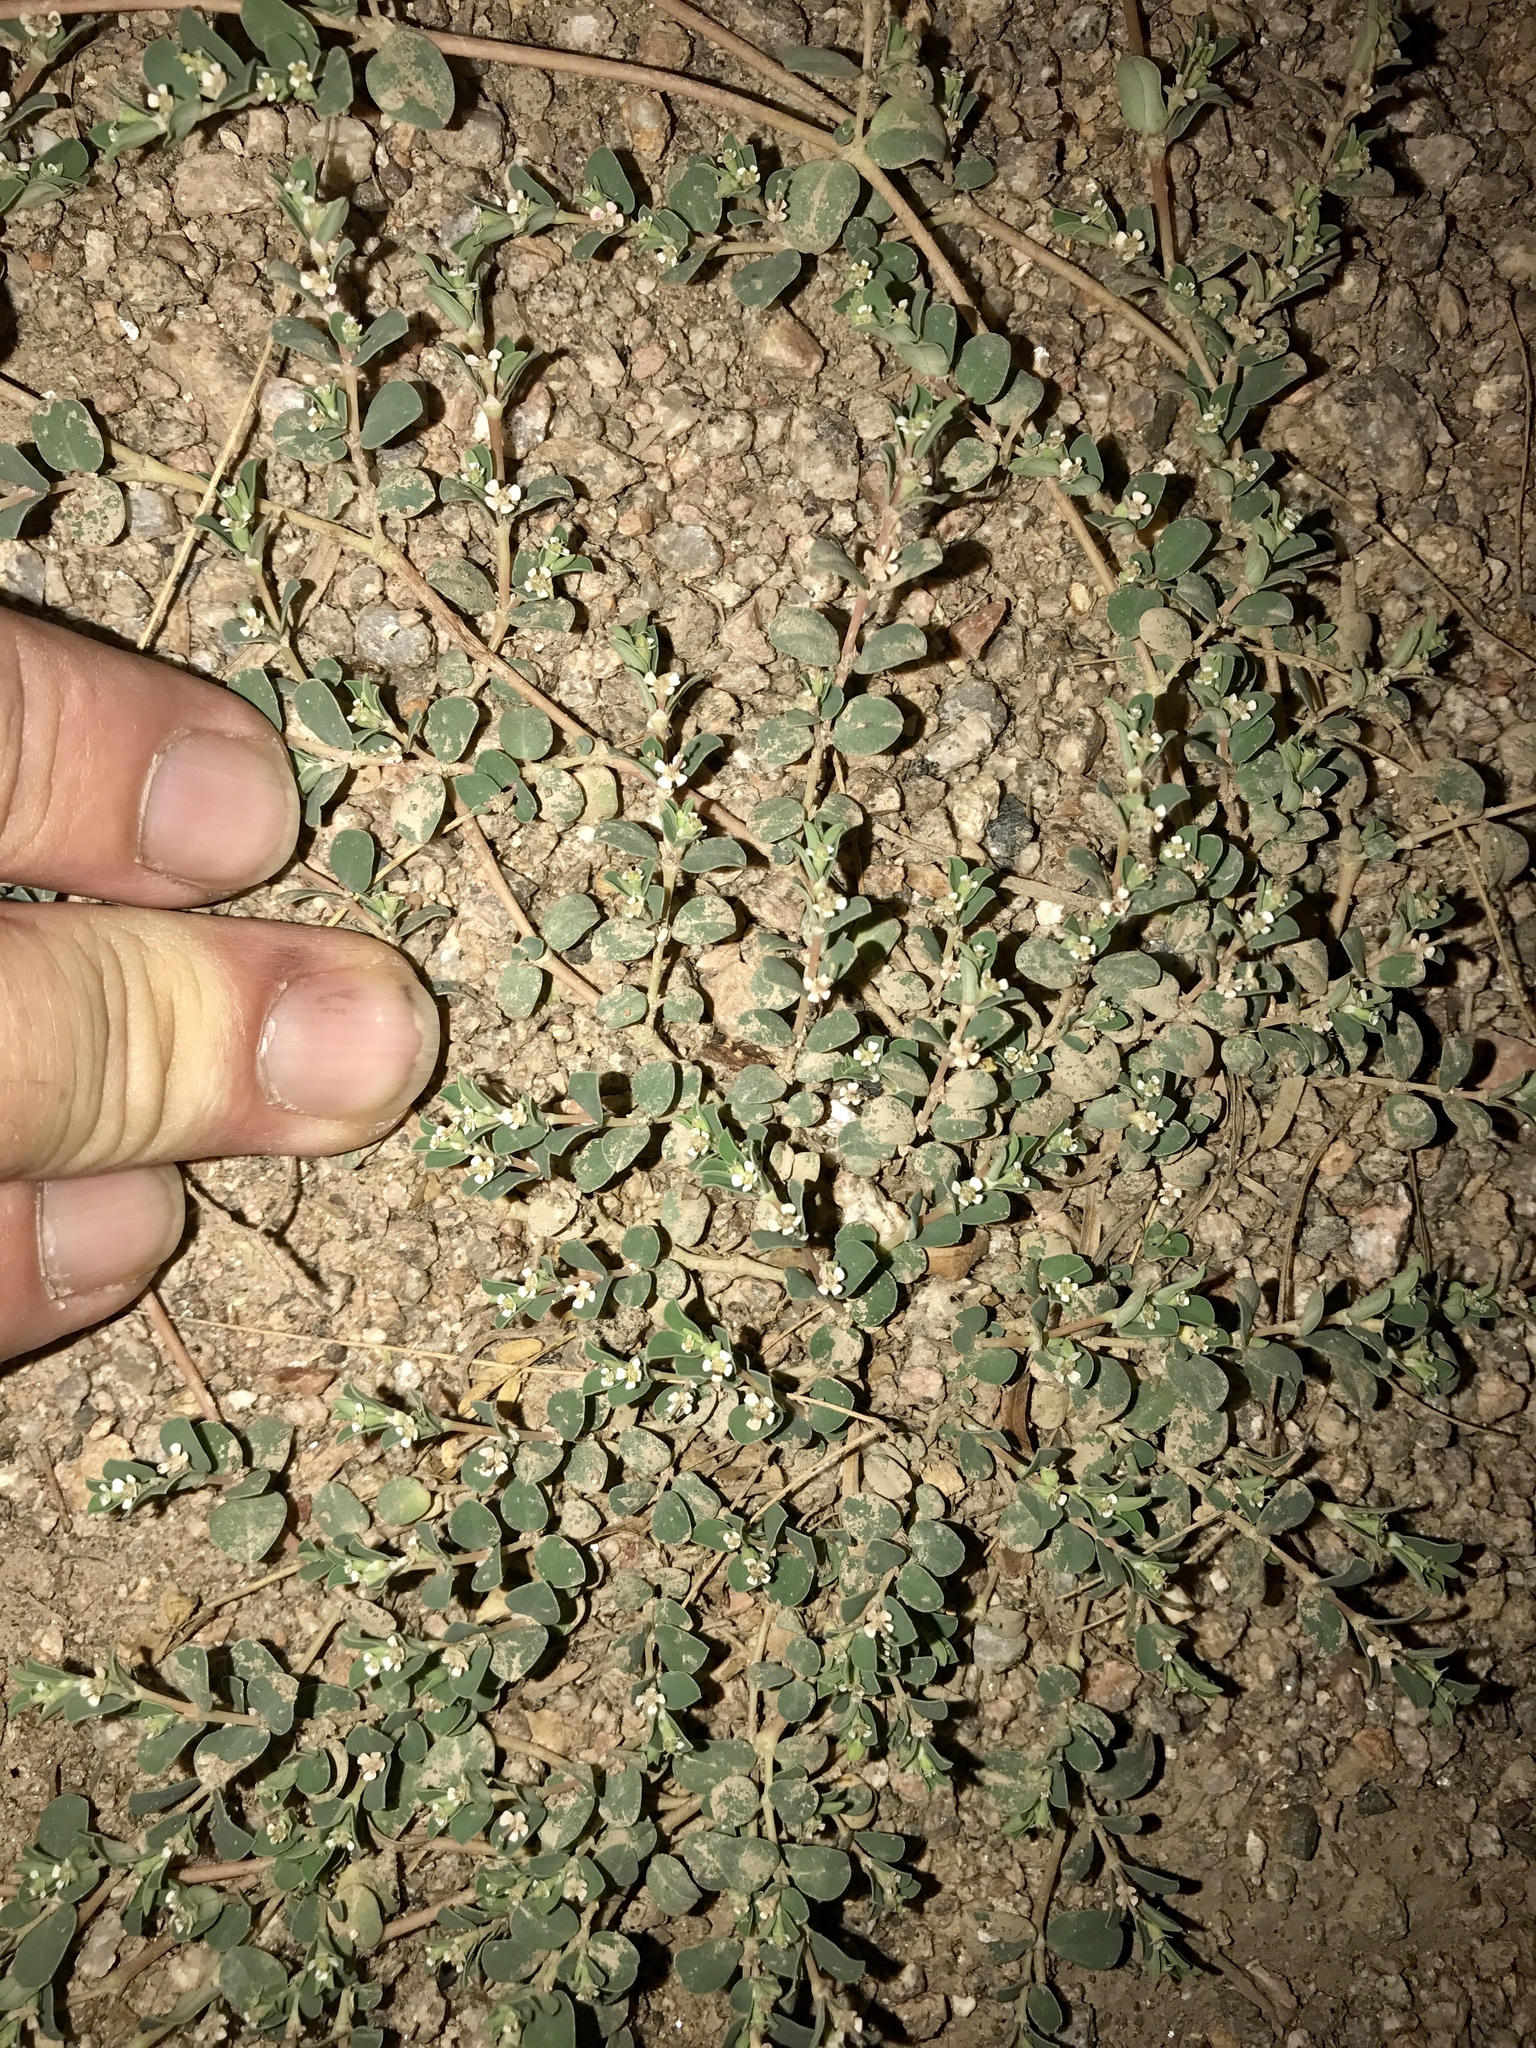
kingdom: Plantae
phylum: Tracheophyta
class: Magnoliopsida
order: Malpighiales
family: Euphorbiaceae
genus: Euphorbia
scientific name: Euphorbia albomarginata
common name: Whitemargin sandmat
